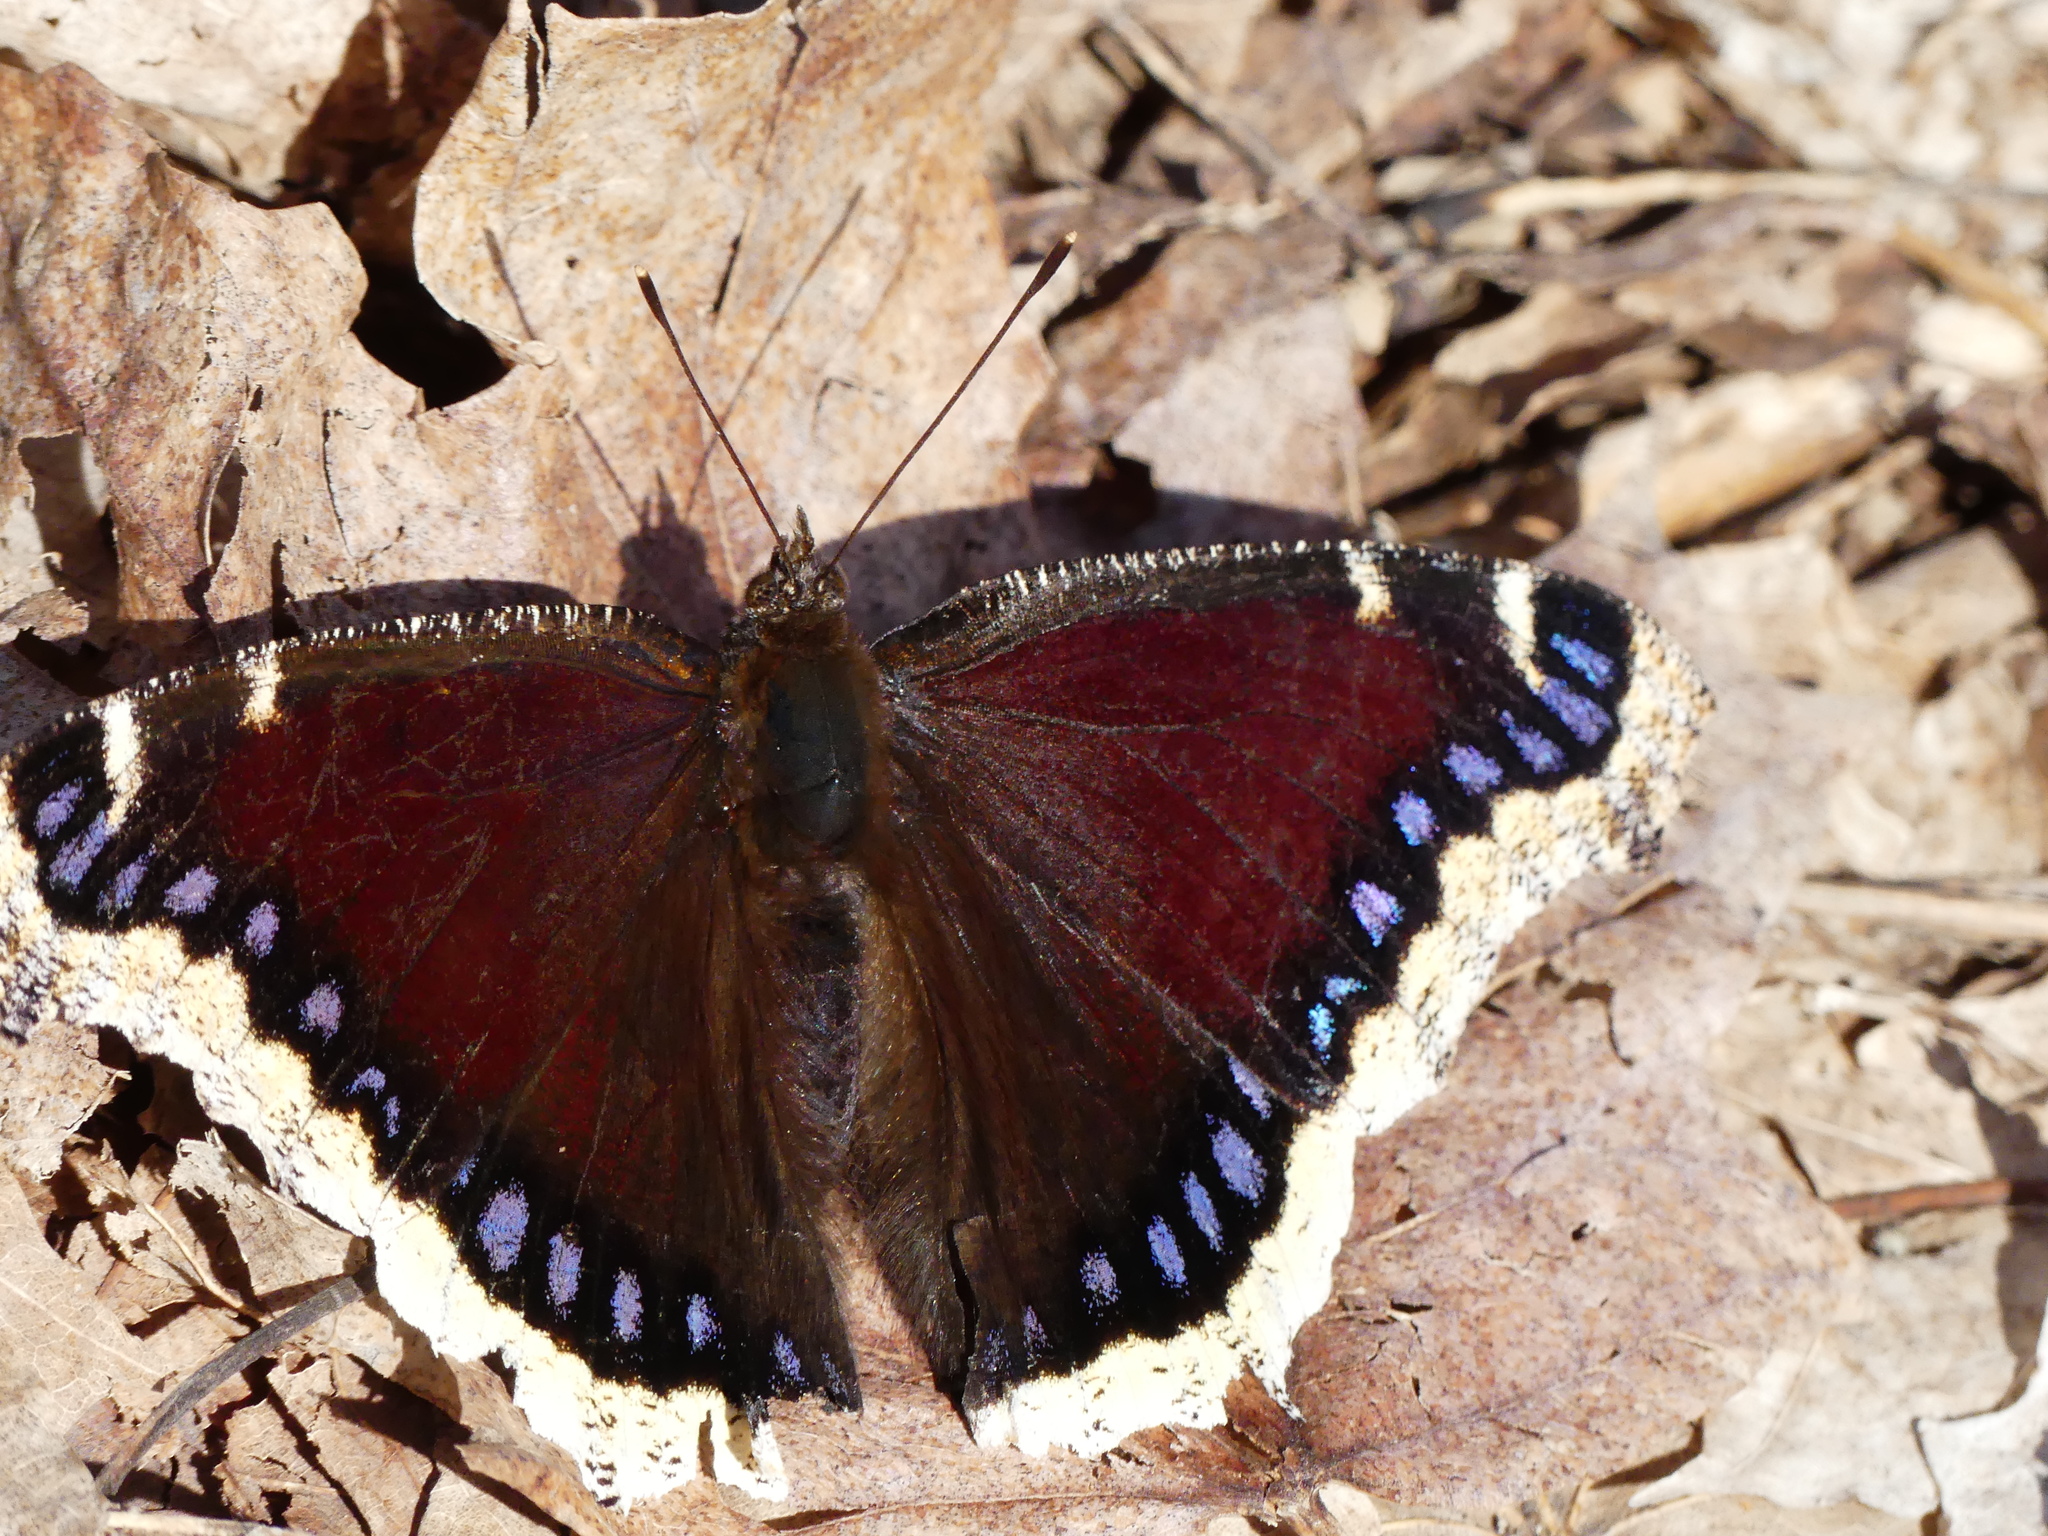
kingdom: Animalia
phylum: Arthropoda
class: Insecta
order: Lepidoptera
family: Nymphalidae
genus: Nymphalis
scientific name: Nymphalis antiopa
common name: Camberwell beauty
